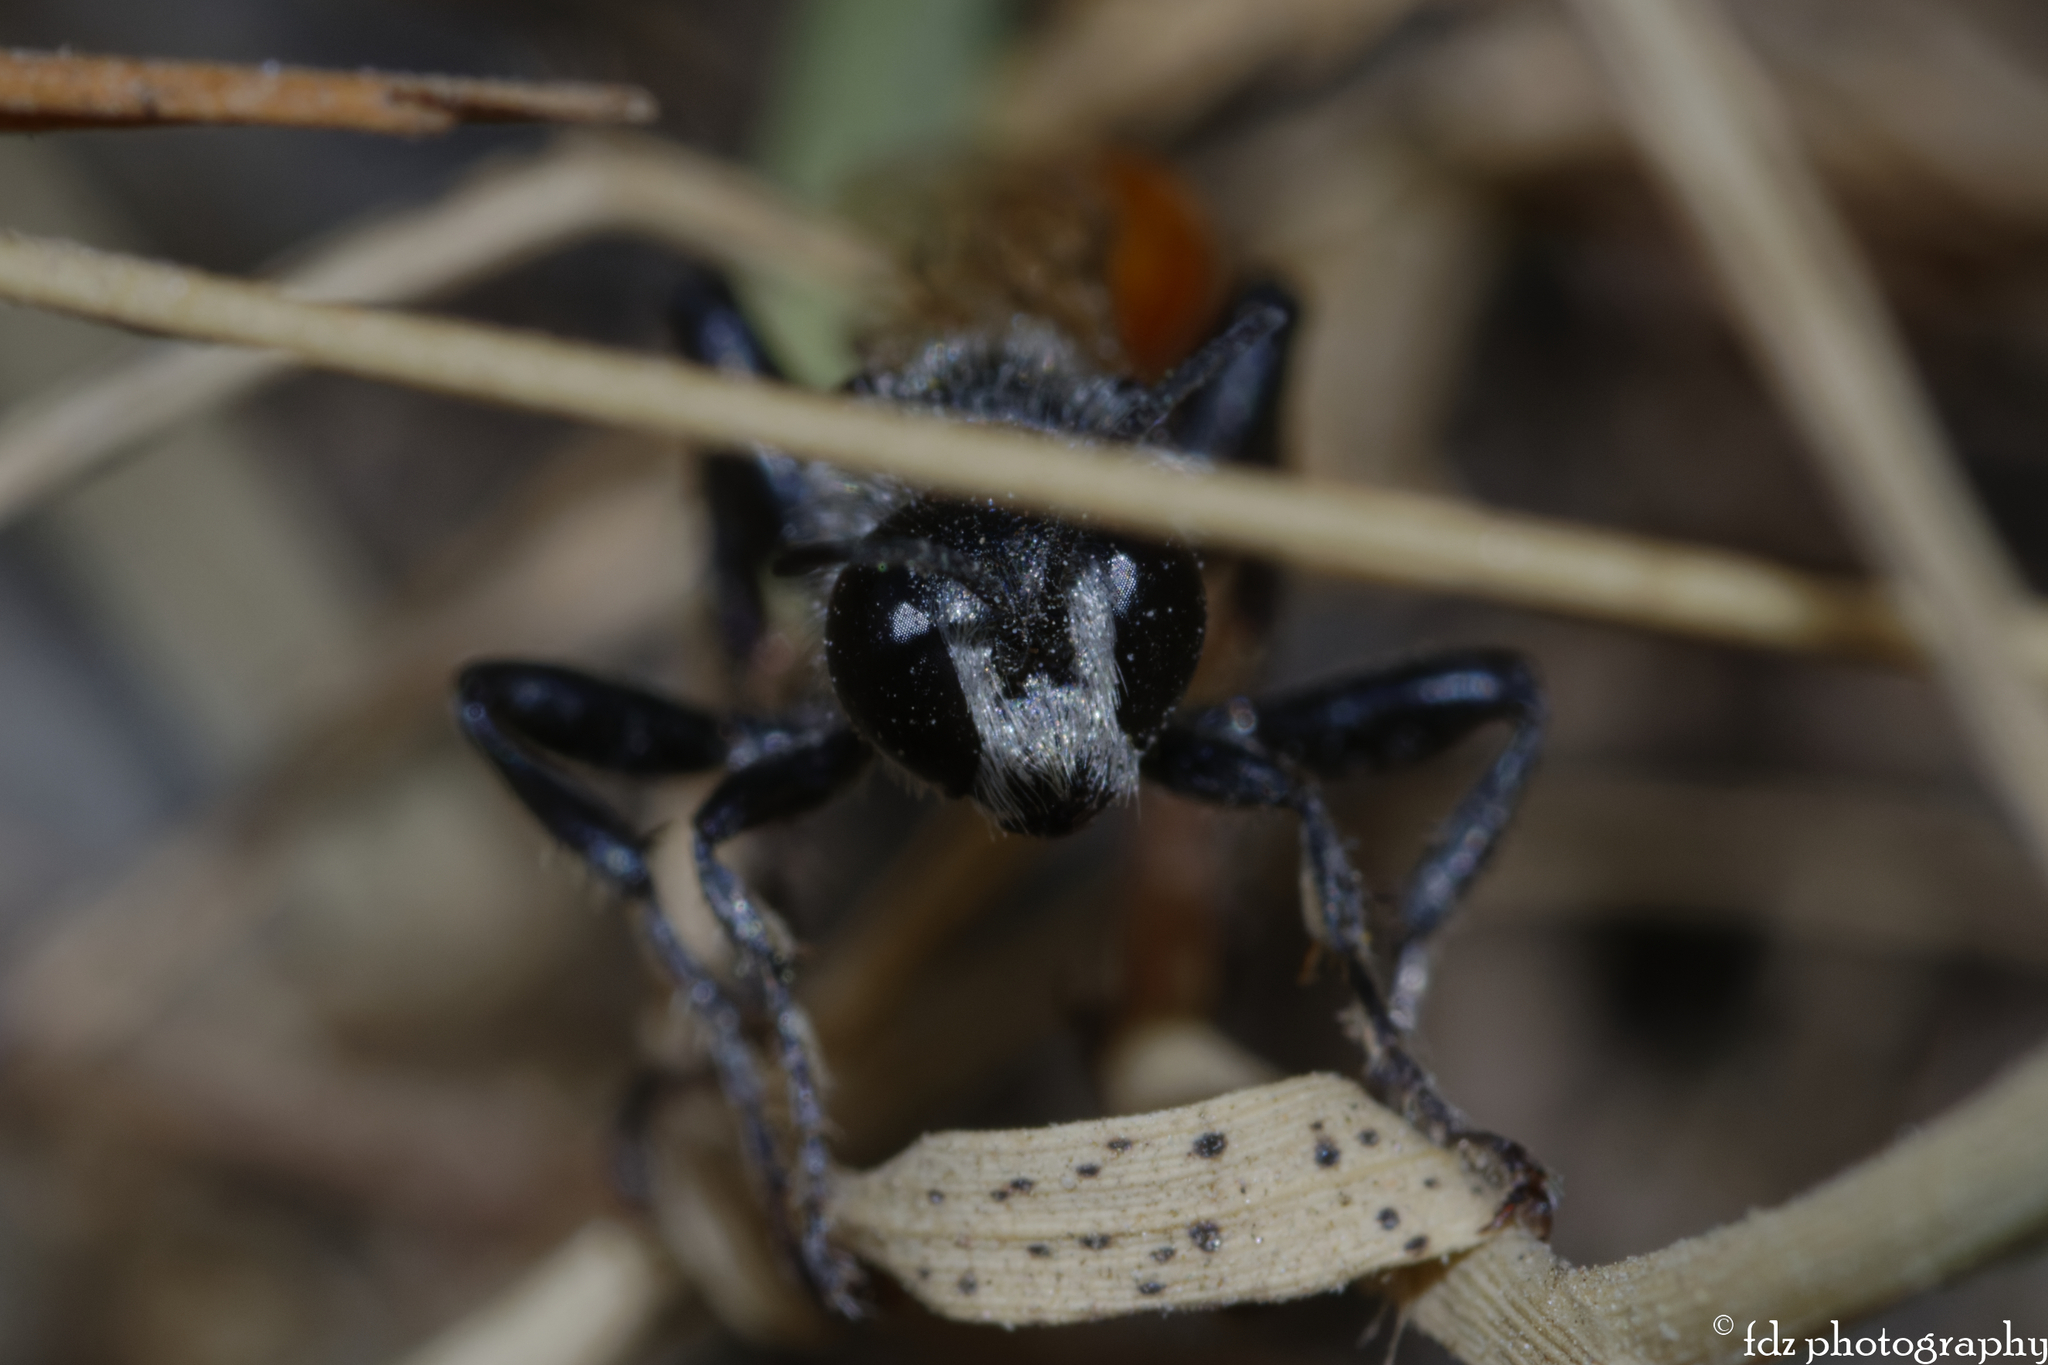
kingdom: Animalia
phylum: Arthropoda
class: Insecta
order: Hymenoptera
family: Sphecidae
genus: Prionyx
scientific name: Prionyx kirbii
